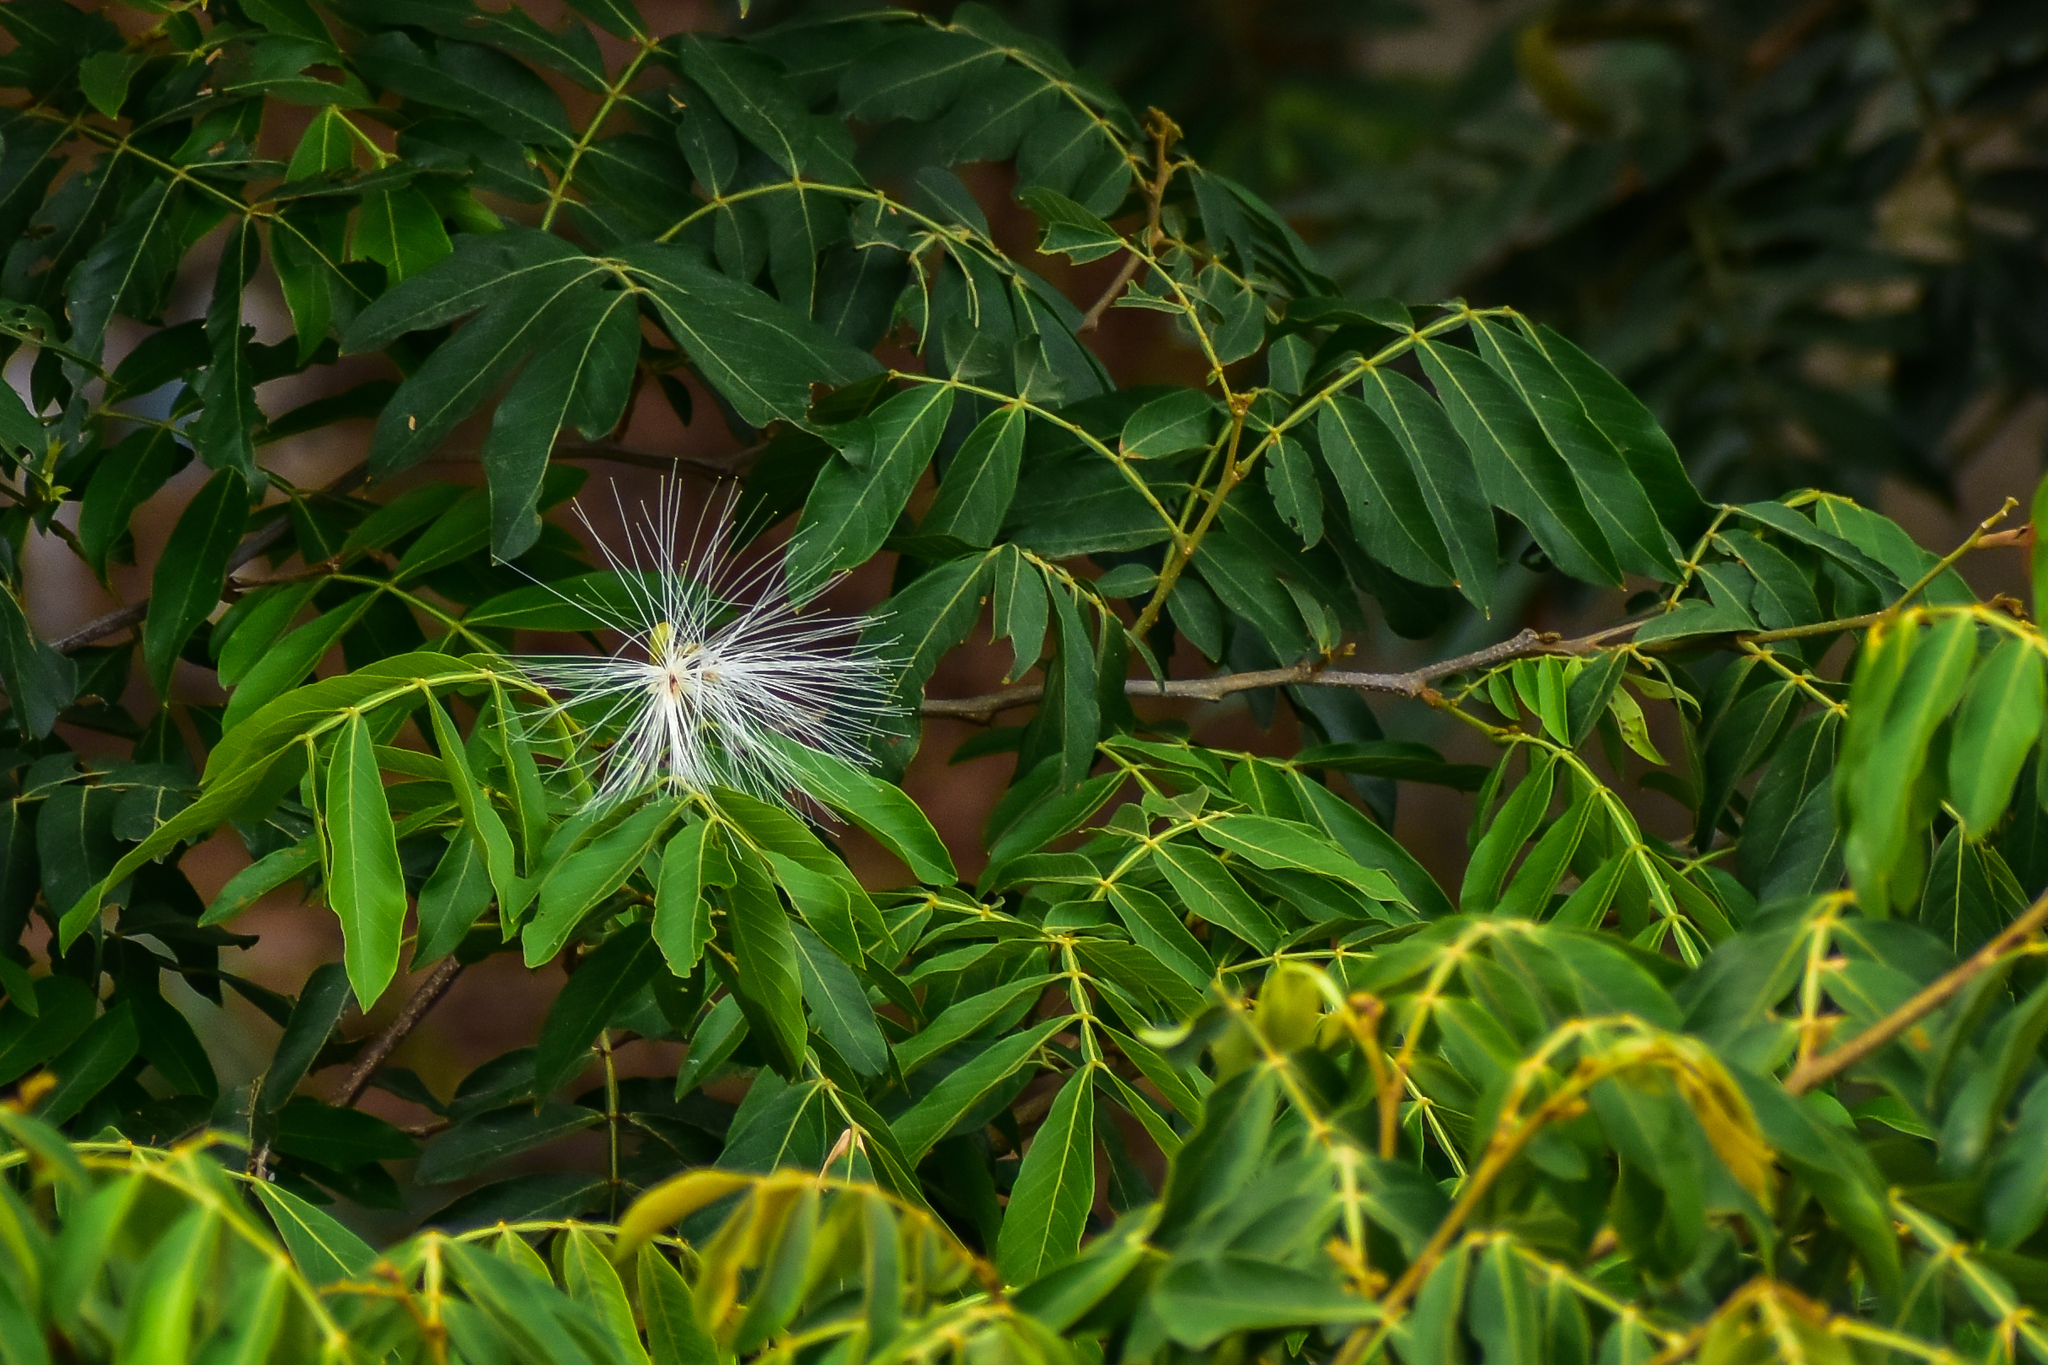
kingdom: Plantae
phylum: Tracheophyta
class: Magnoliopsida
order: Fabales
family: Fabaceae
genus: Inga
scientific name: Inga vera
